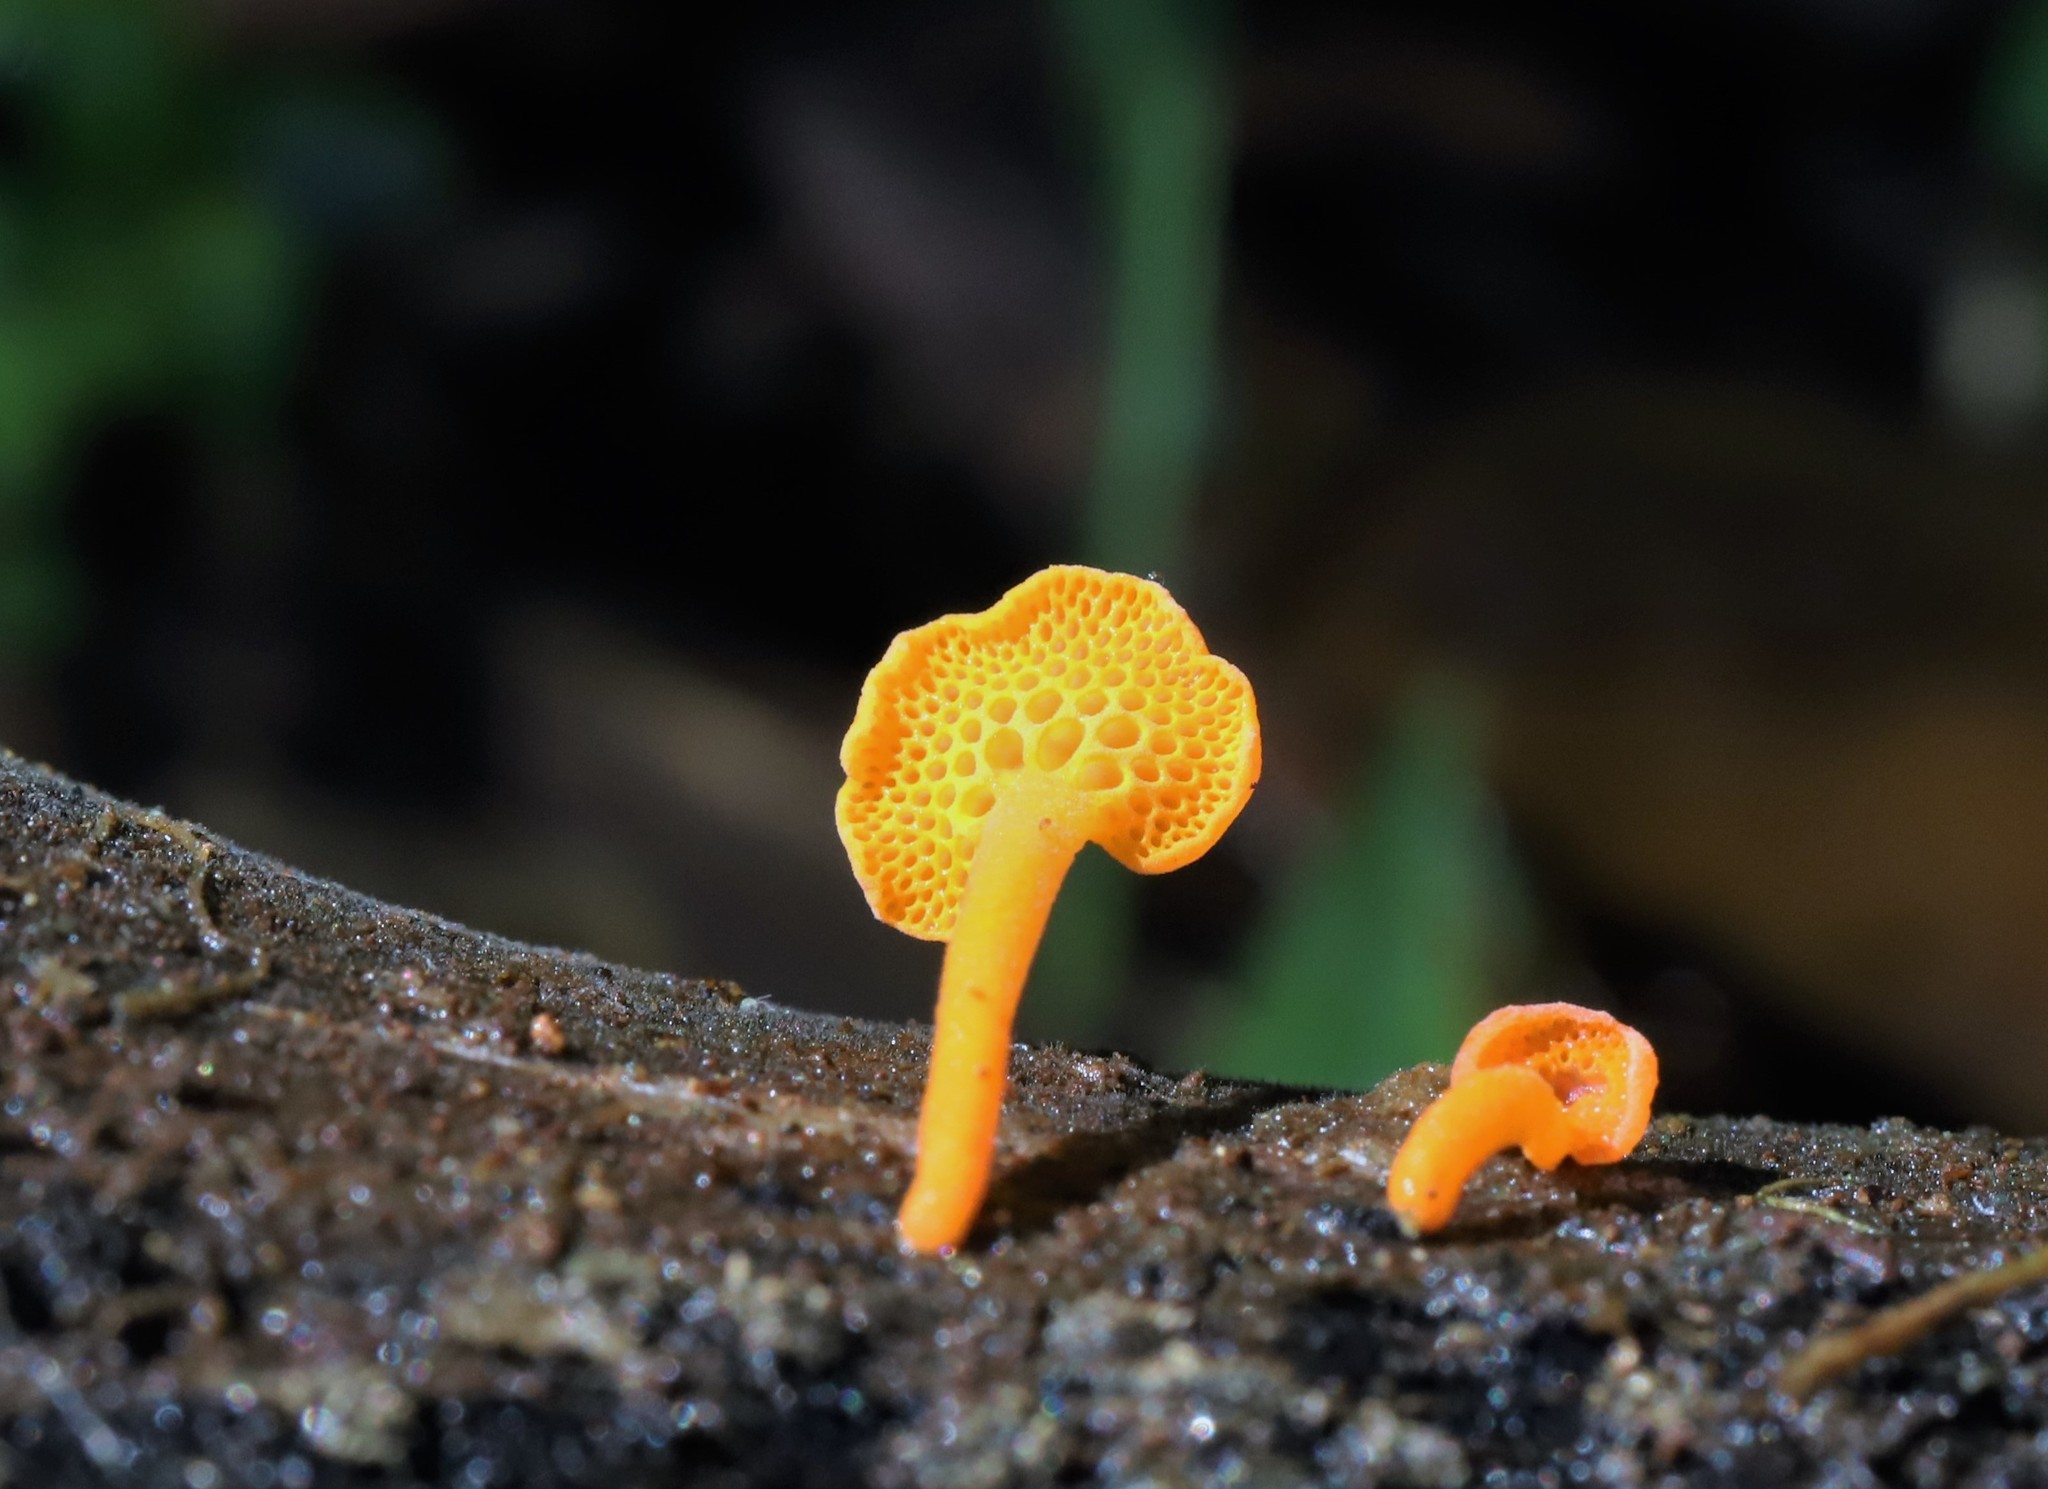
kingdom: Fungi
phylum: Basidiomycota
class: Agaricomycetes
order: Agaricales
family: Mycenaceae
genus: Favolaschia
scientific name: Favolaschia claudopus
